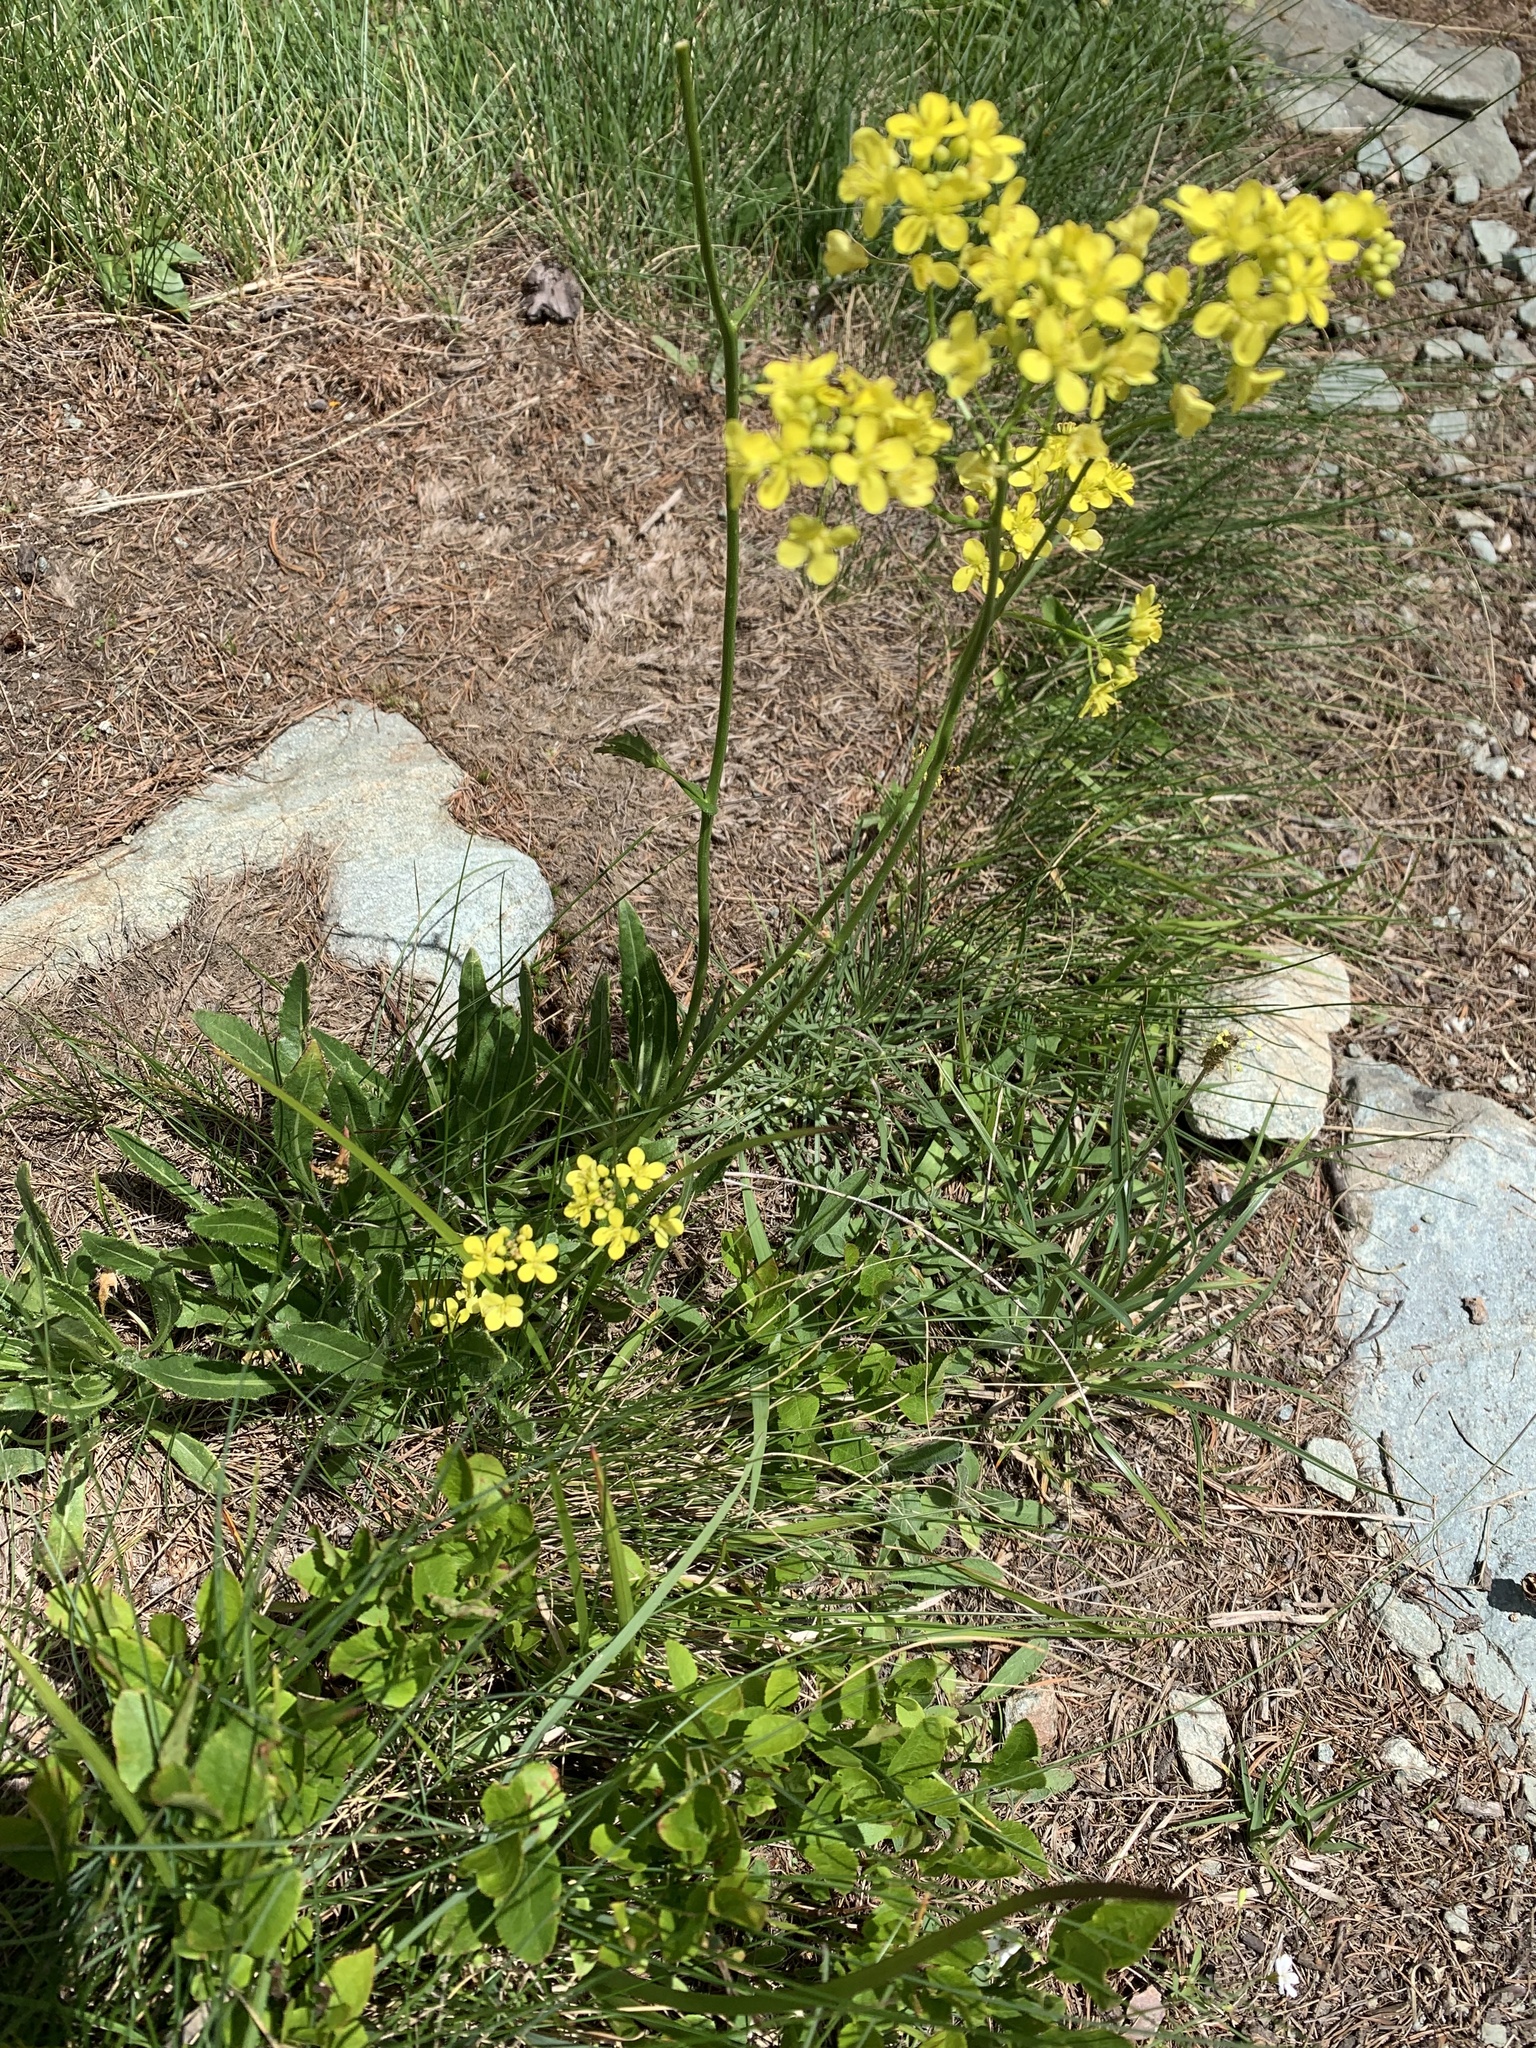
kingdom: Plantae
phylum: Tracheophyta
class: Magnoliopsida
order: Brassicales
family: Brassicaceae
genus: Biscutella
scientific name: Biscutella laevigata
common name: Buckler mustard
